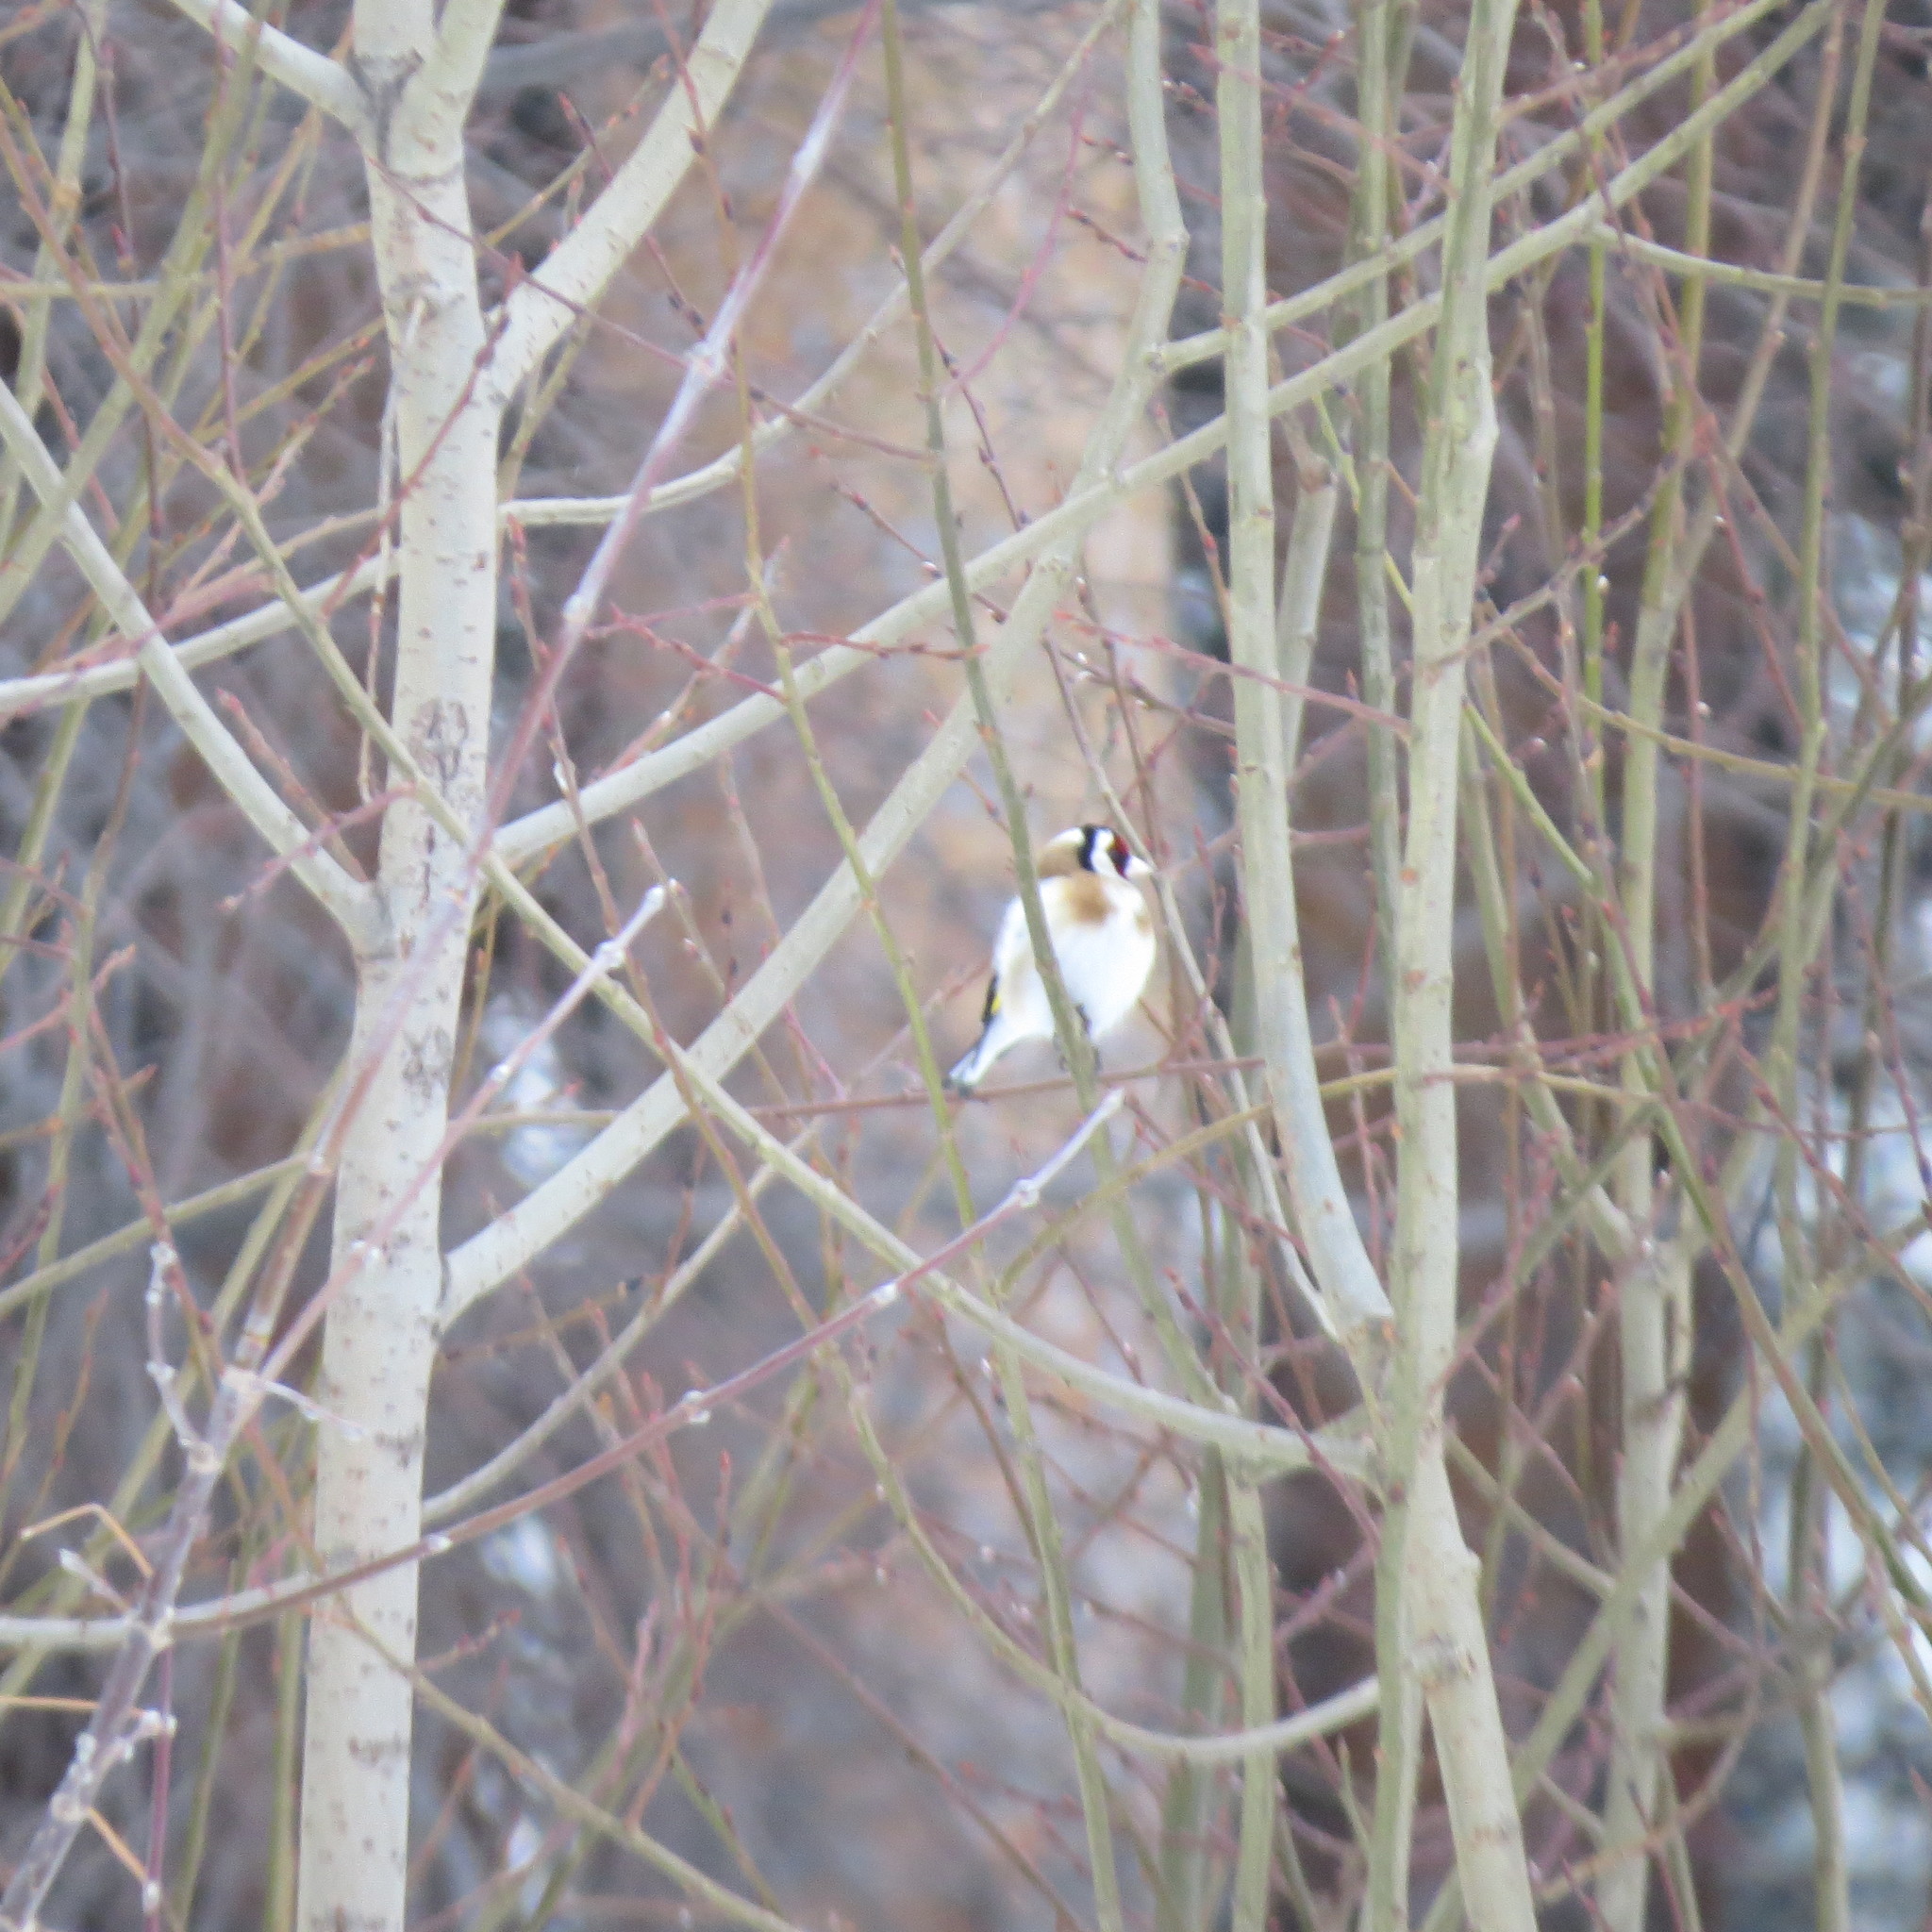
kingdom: Animalia
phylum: Chordata
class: Aves
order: Passeriformes
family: Fringillidae
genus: Carduelis
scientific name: Carduelis carduelis
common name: European goldfinch
